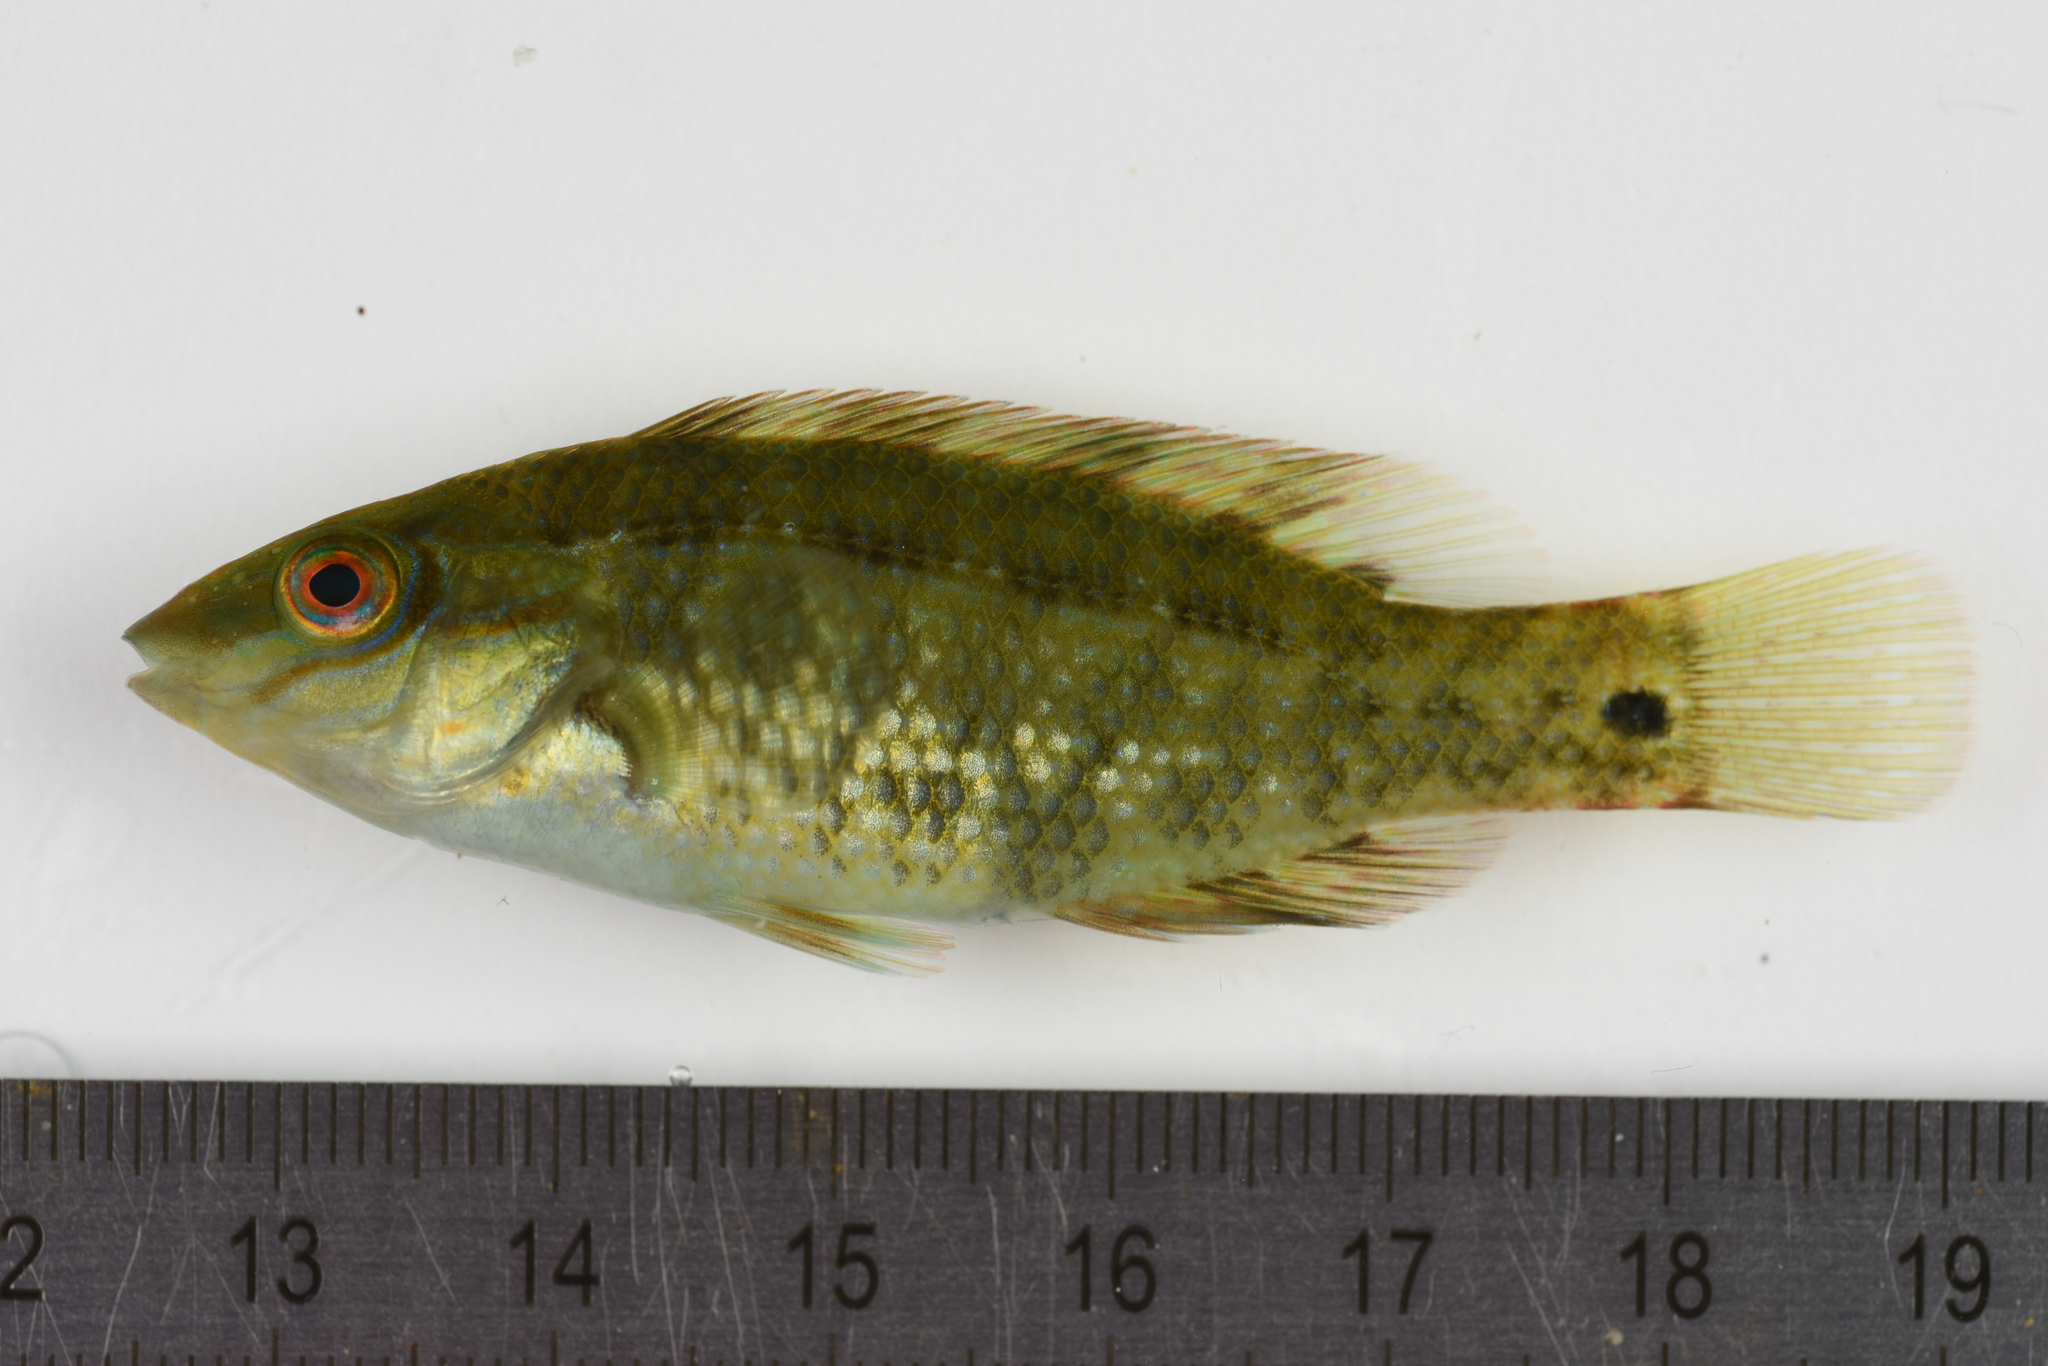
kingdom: Animalia
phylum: Chordata
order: Perciformes
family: Labridae
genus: Symphodus
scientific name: Symphodus melops
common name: Corkwing
